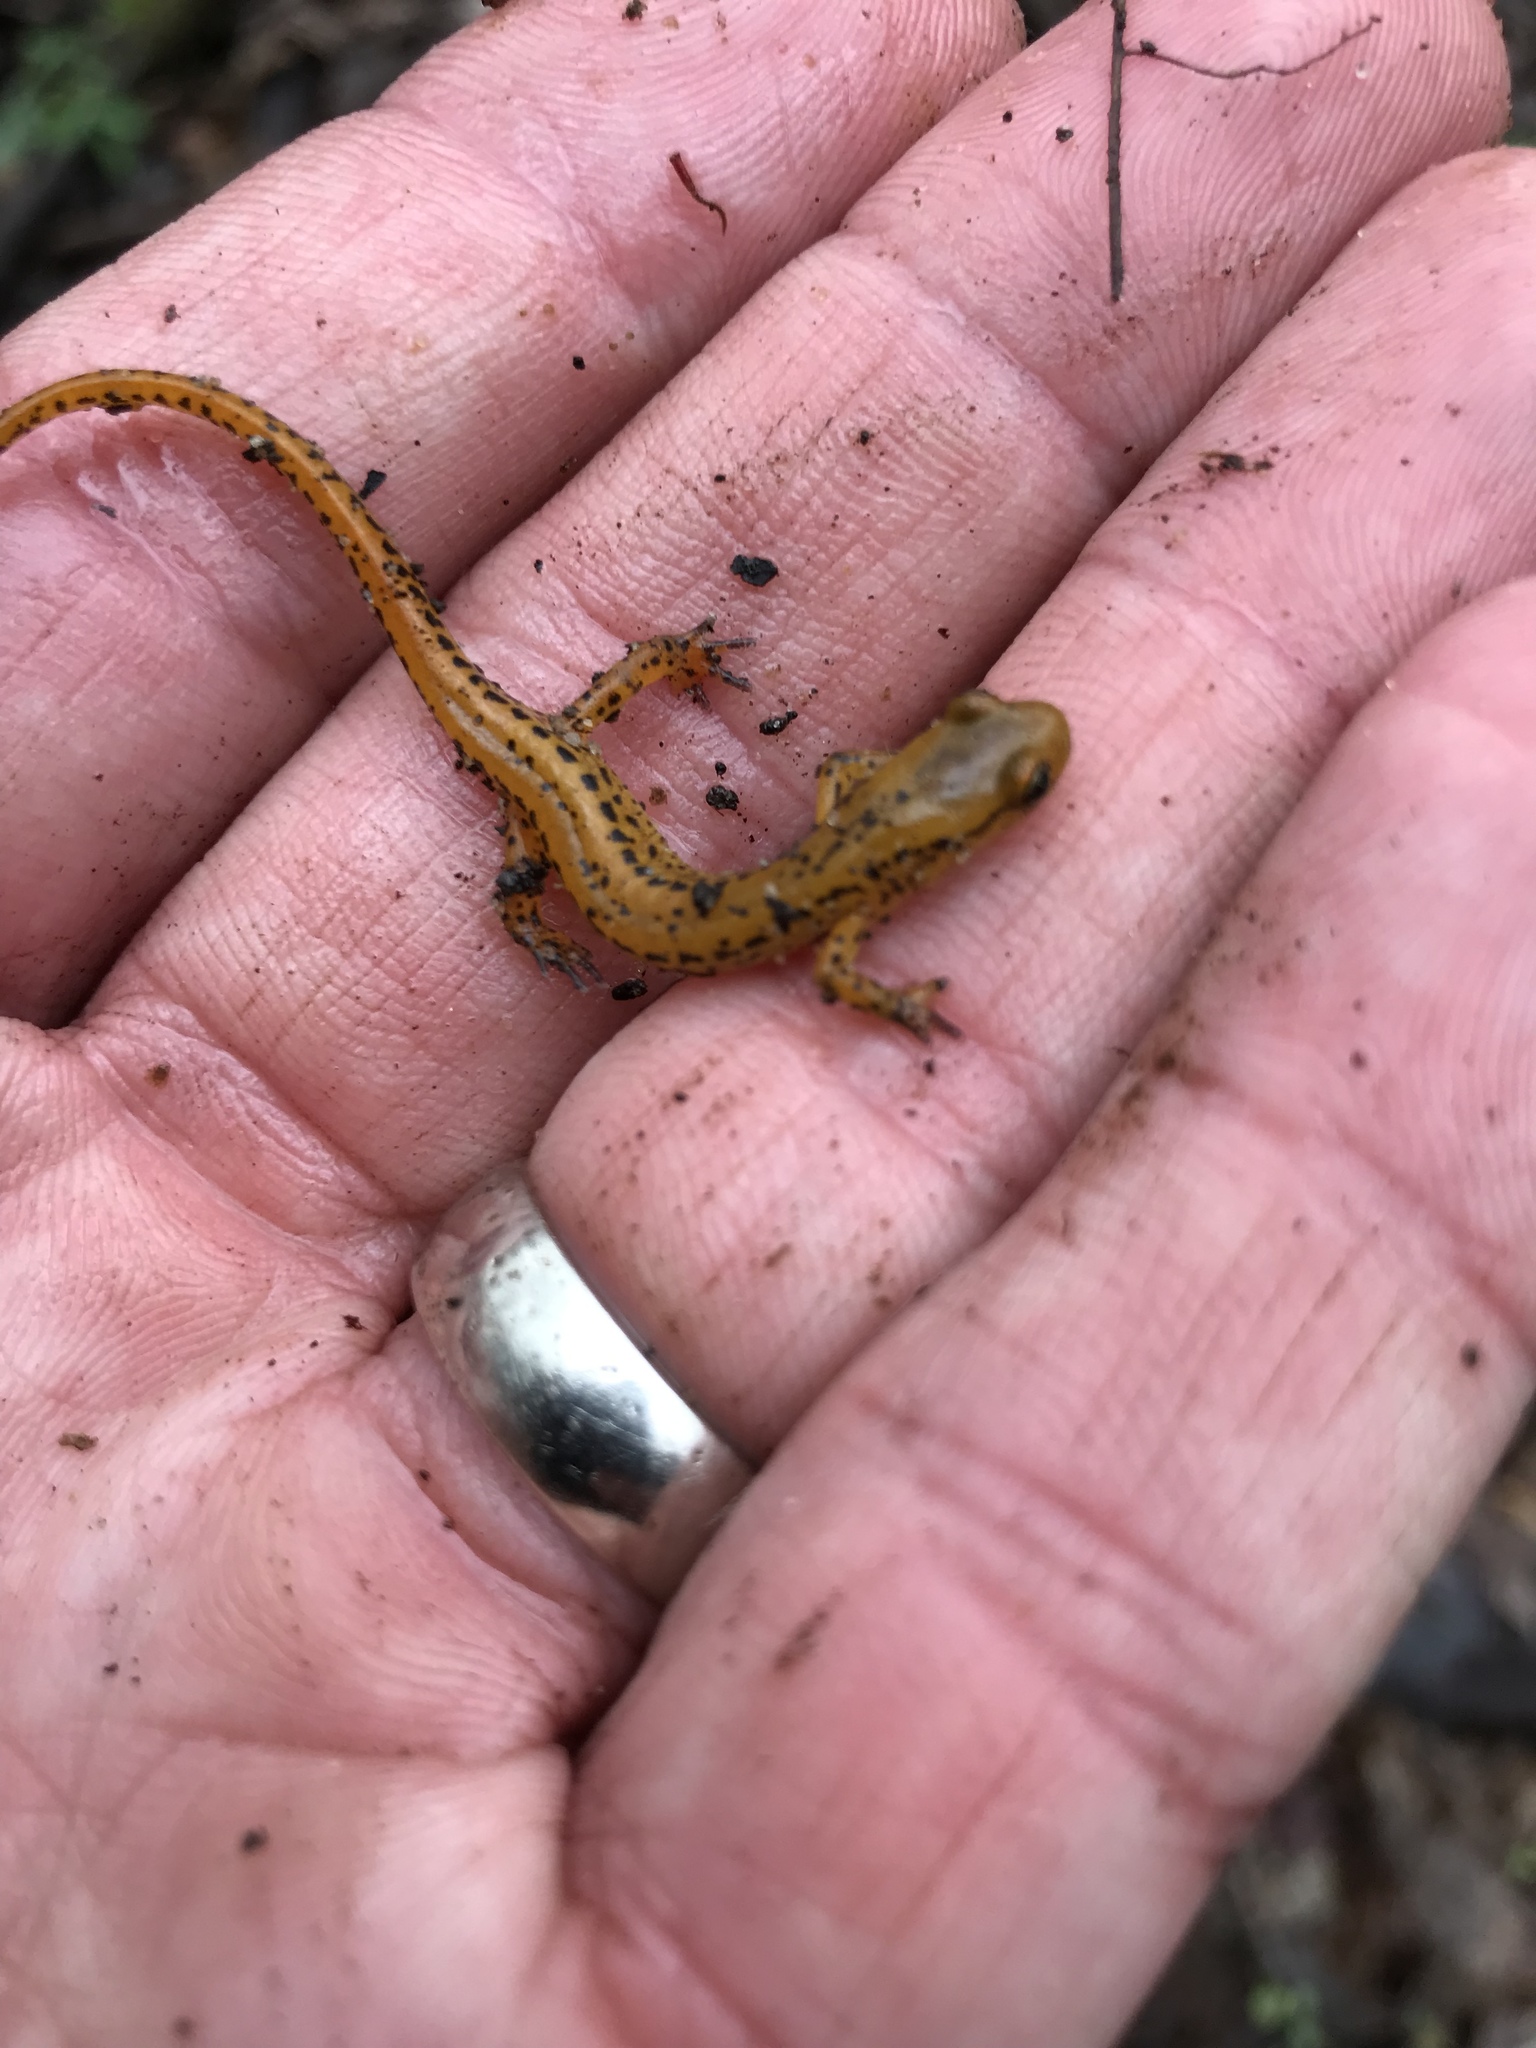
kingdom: Animalia
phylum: Chordata
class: Amphibia
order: Caudata
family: Plethodontidae
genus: Eurycea
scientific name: Eurycea longicauda
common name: Long-tailed salamander
